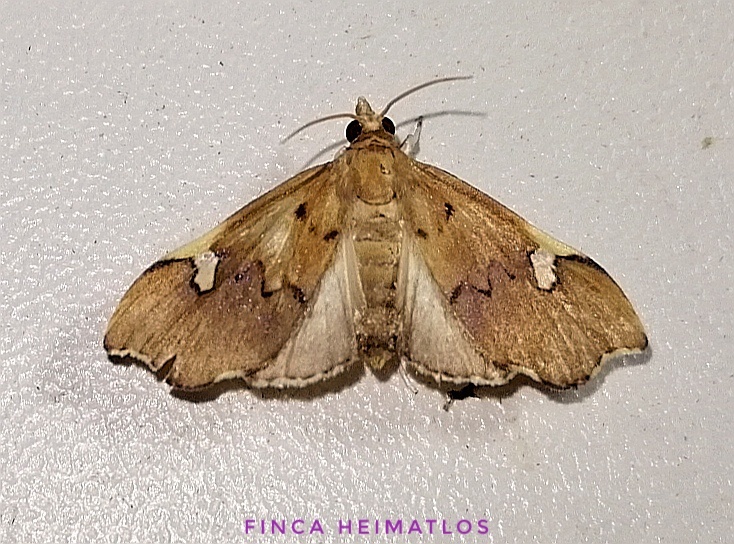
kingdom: Animalia
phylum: Arthropoda
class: Insecta
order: Lepidoptera
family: Crambidae
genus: Deuterophysa
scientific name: Deuterophysa asychanalis
